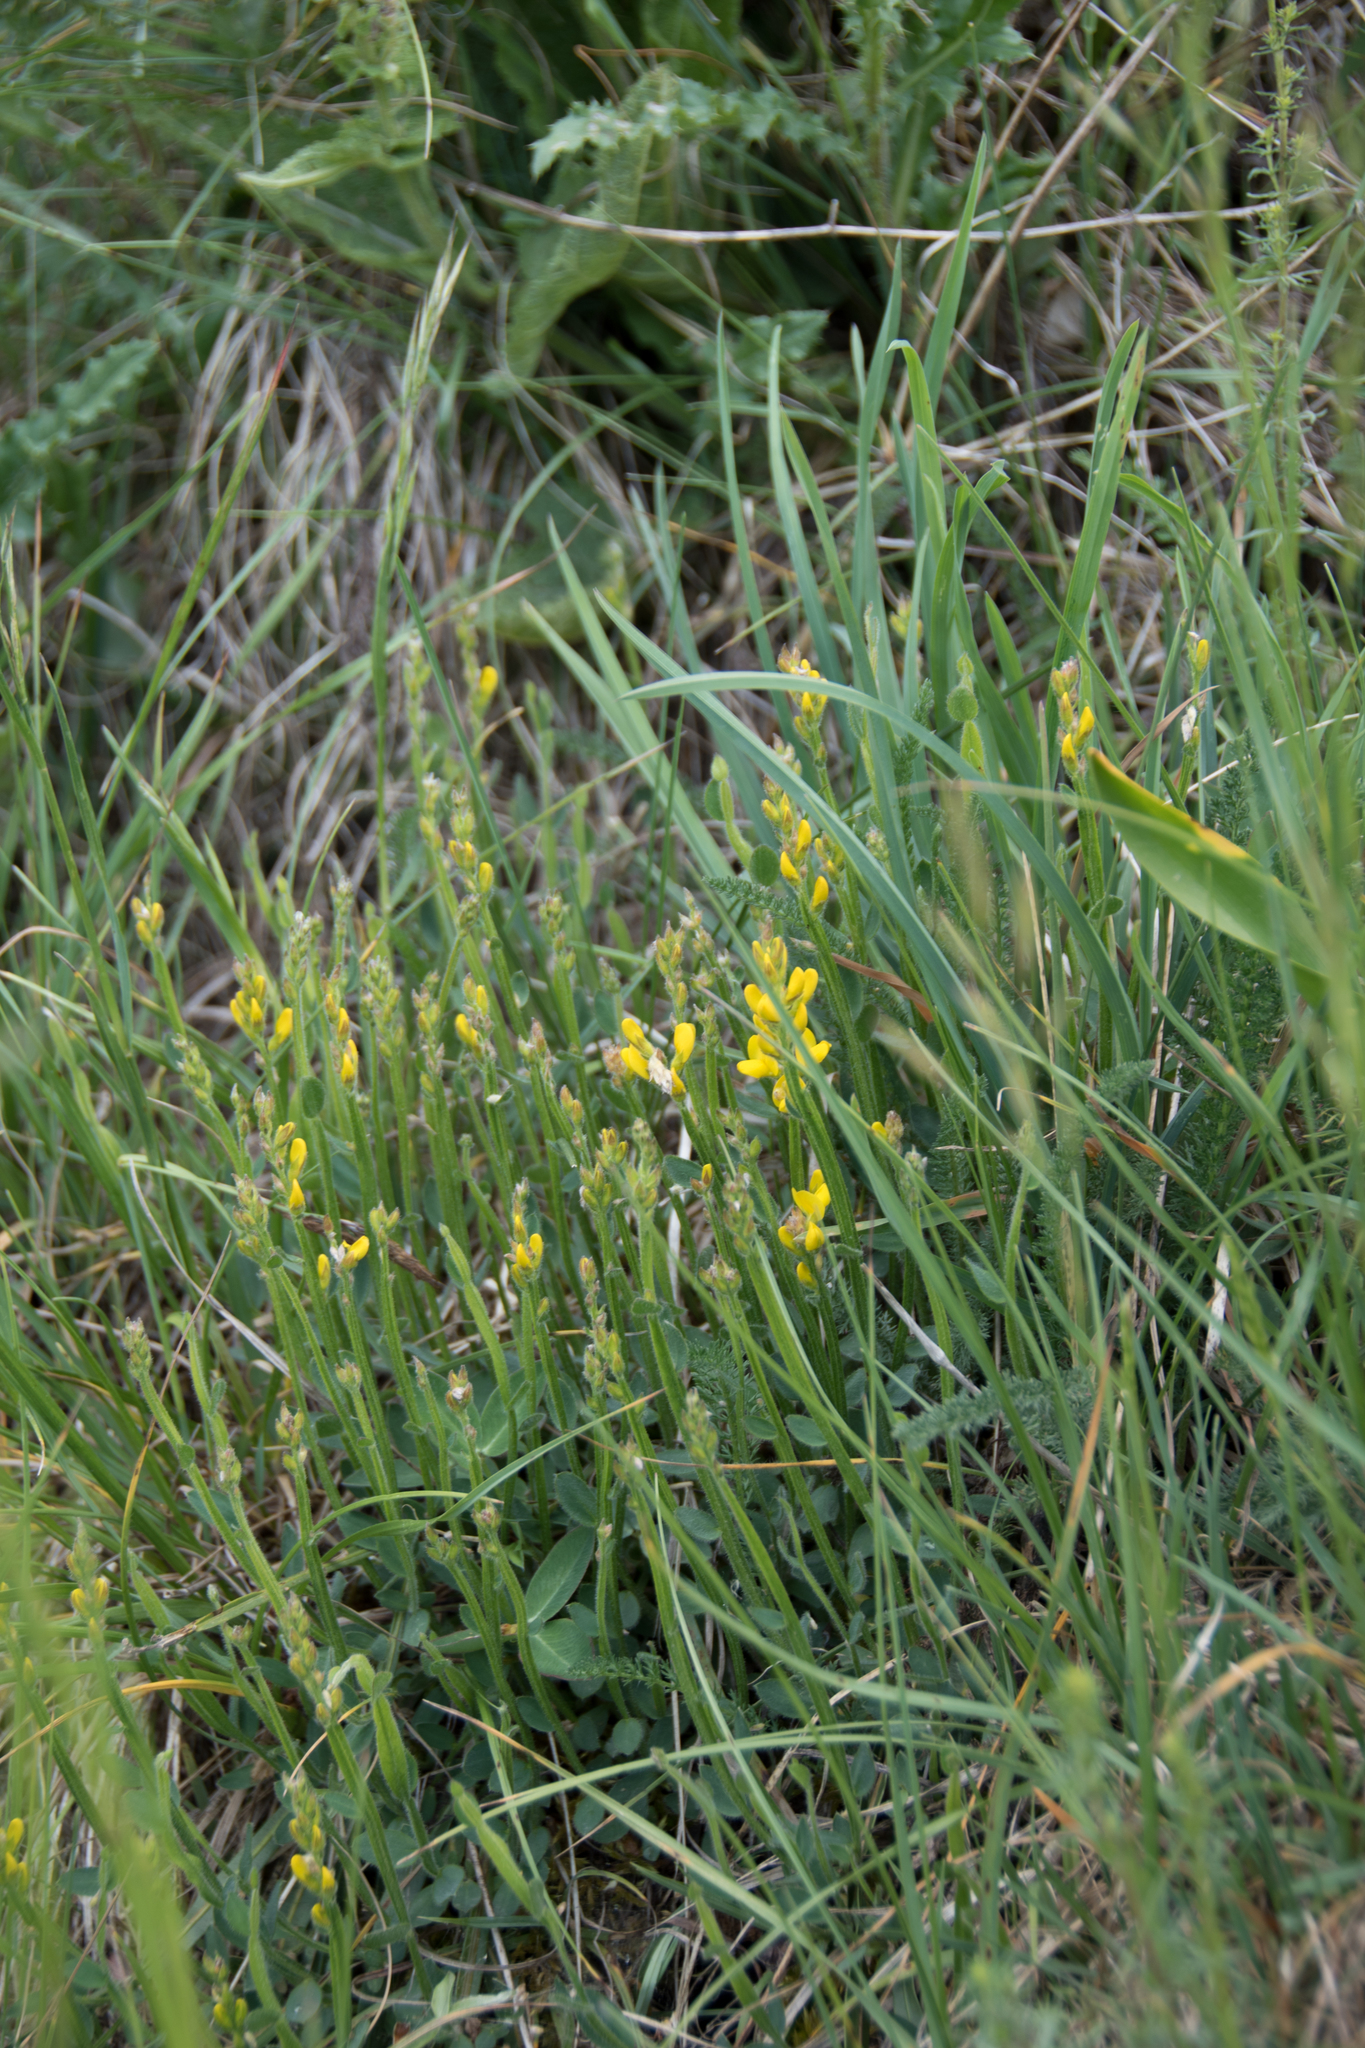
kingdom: Plantae
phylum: Tracheophyta
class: Magnoliopsida
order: Fabales
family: Fabaceae
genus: Genista
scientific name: Genista sagittalis
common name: Winged greenweed
